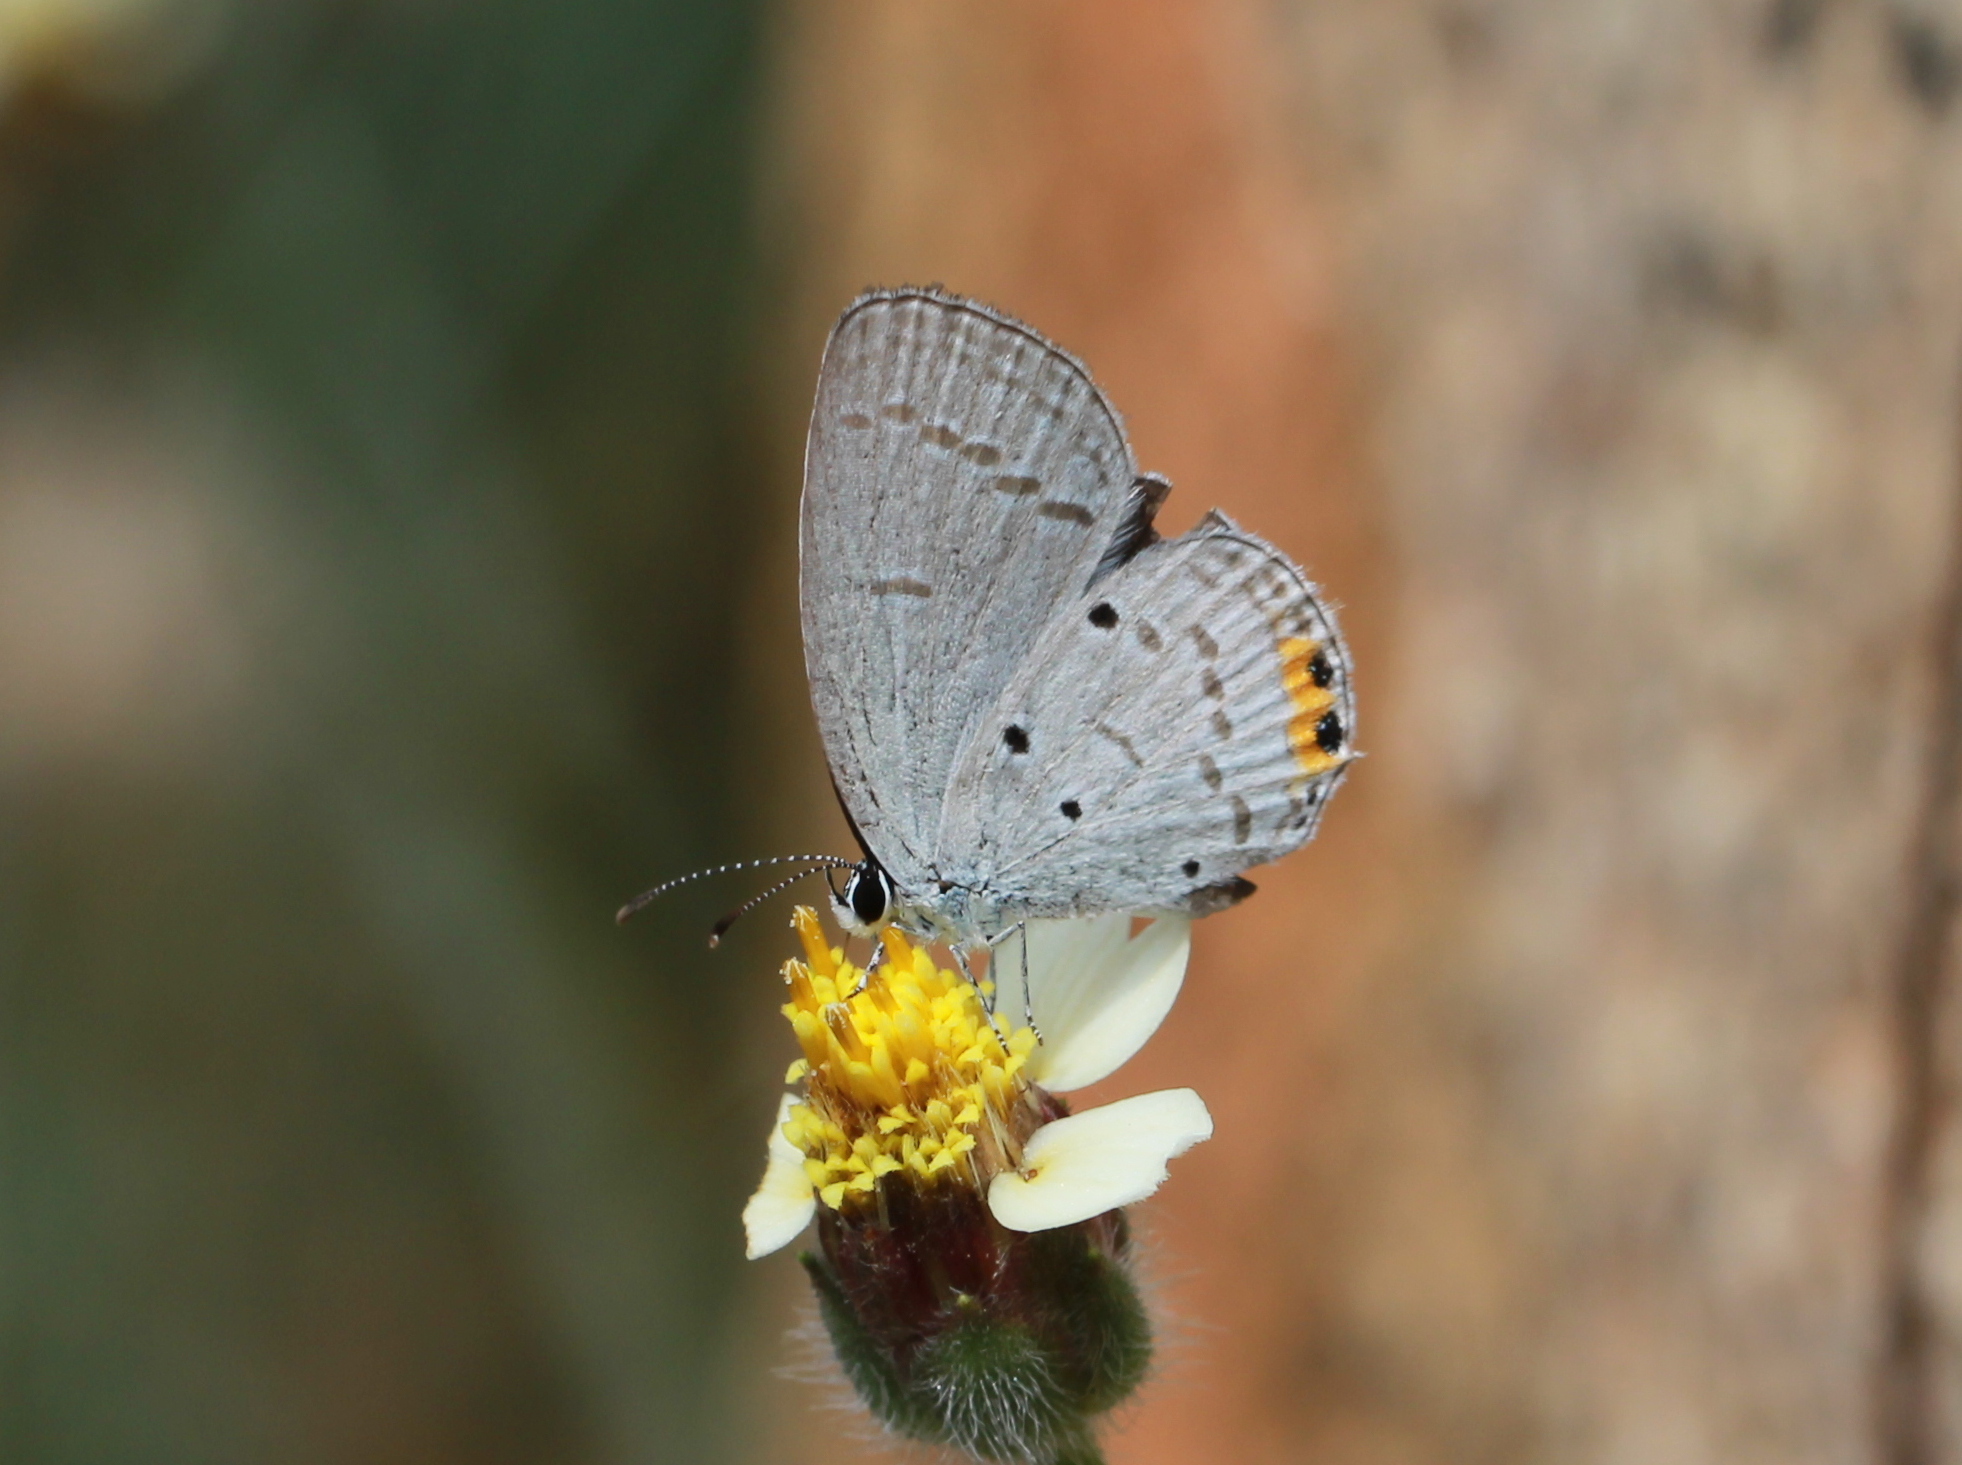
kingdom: Animalia
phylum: Arthropoda
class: Insecta
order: Lepidoptera
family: Lycaenidae
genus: Everes
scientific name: Everes lacturnus
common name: Orange-tipped pea-blue
